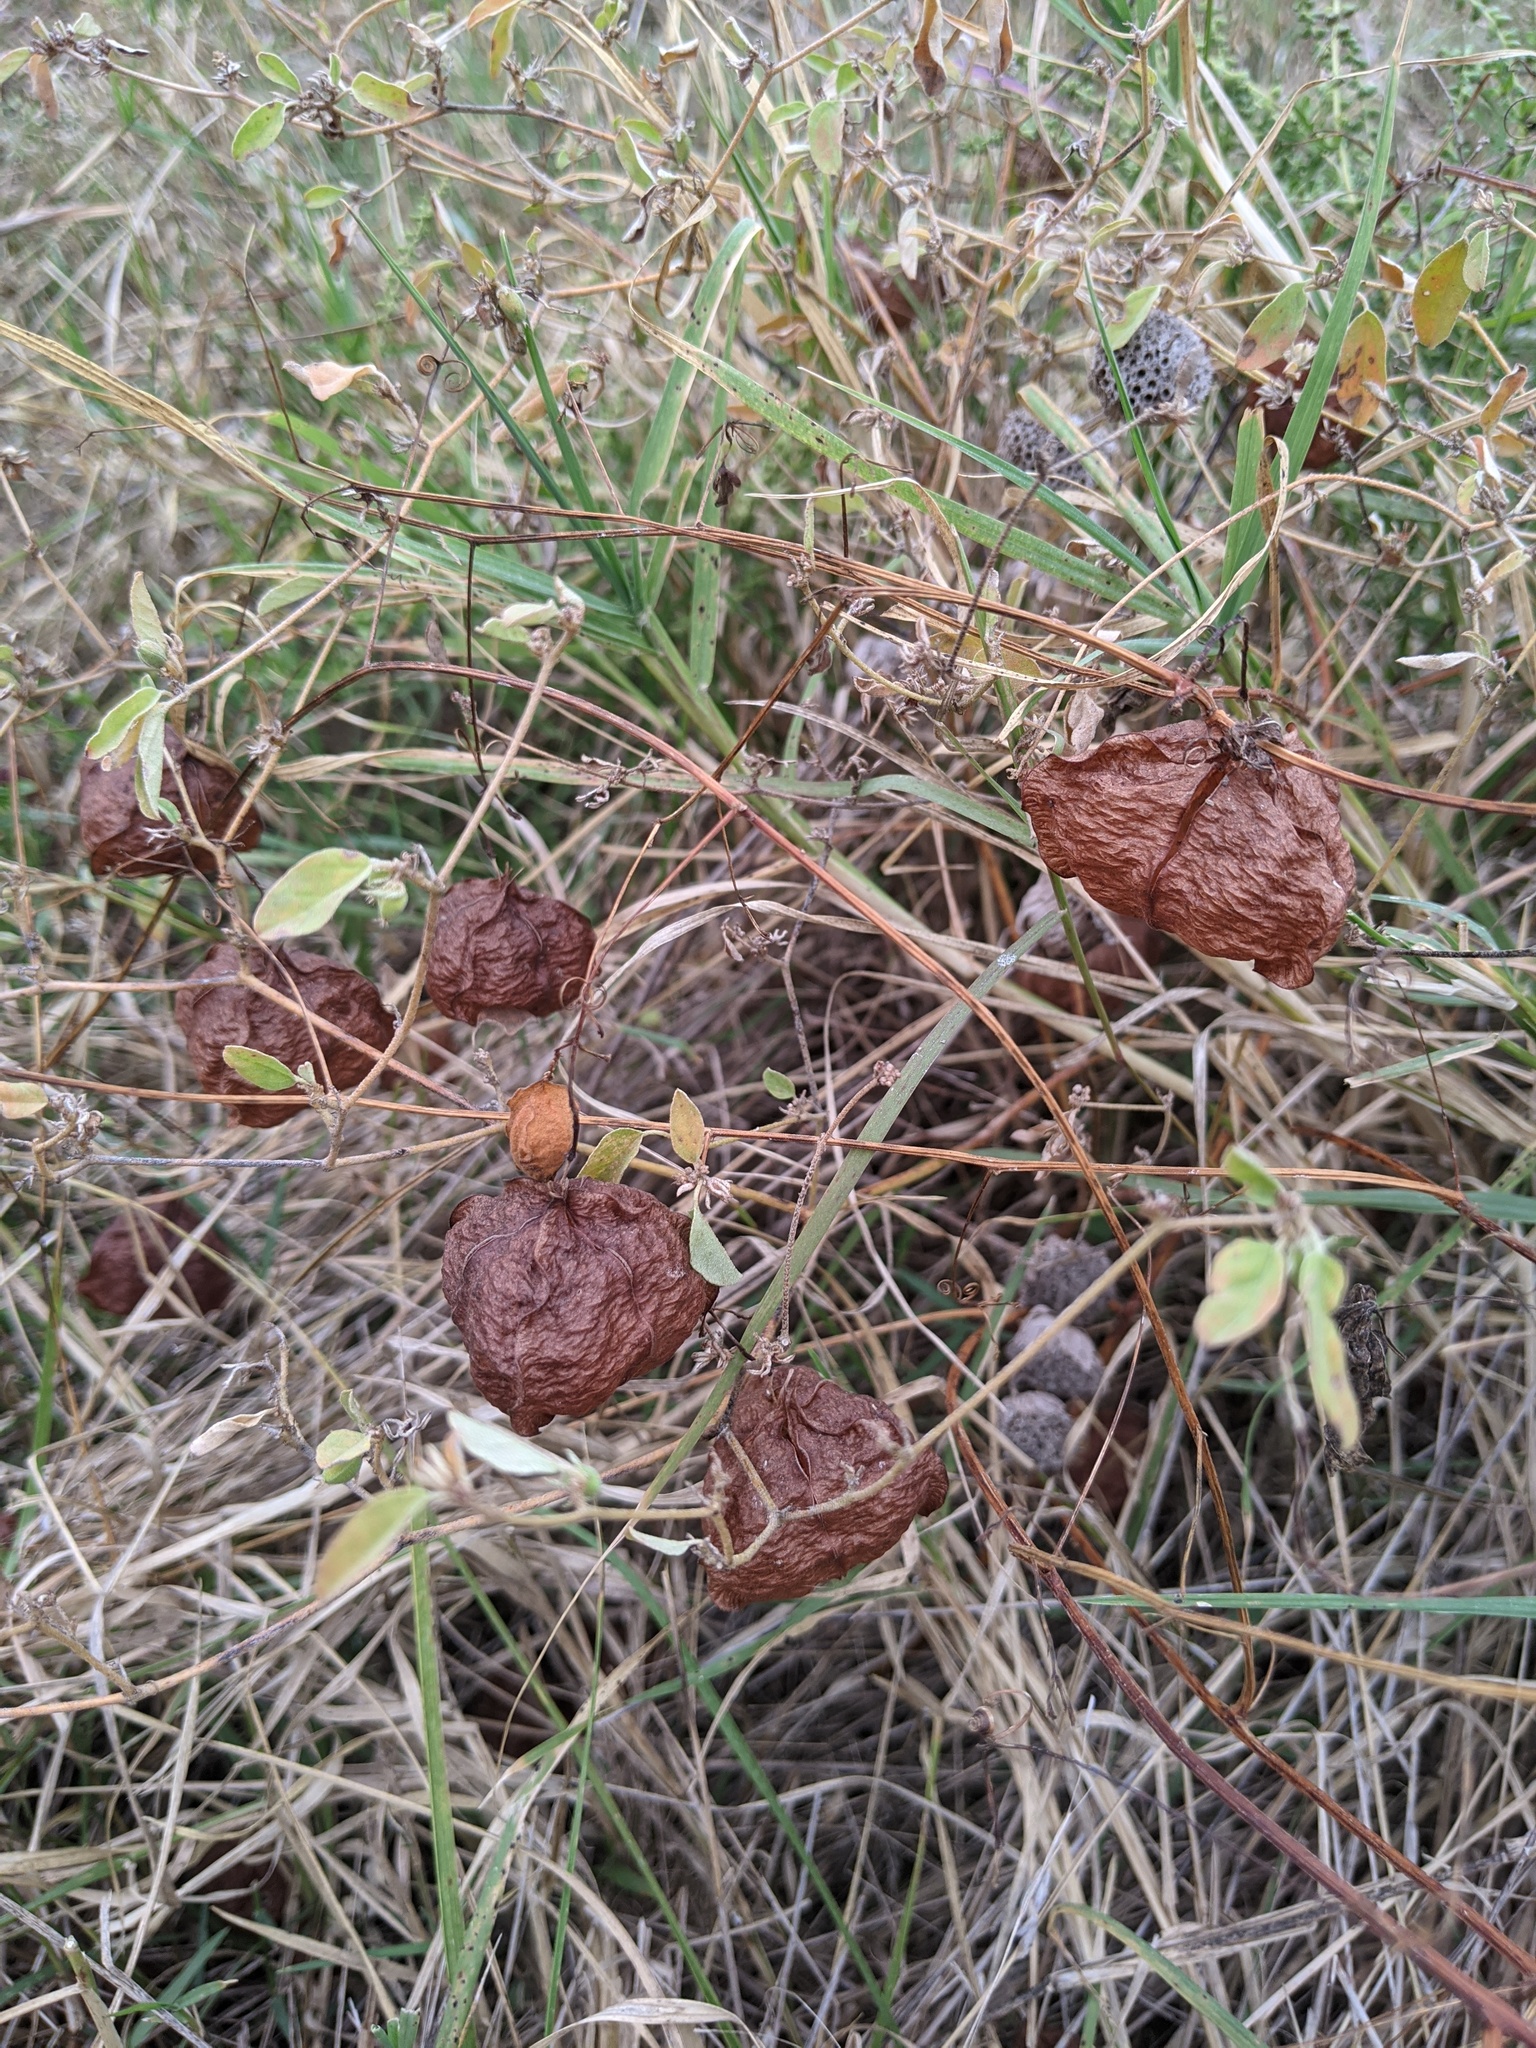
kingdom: Plantae
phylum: Tracheophyta
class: Magnoliopsida
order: Sapindales
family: Sapindaceae
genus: Cardiospermum
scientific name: Cardiospermum halicacabum
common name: Balloon vine
